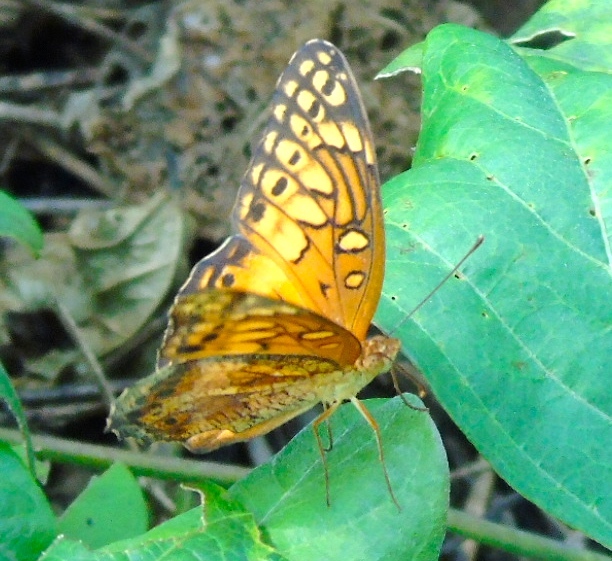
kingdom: Animalia
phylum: Arthropoda
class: Insecta
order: Lepidoptera
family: Nymphalidae
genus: Euptoieta
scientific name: Euptoieta hegesia
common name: Mexican fritillary
